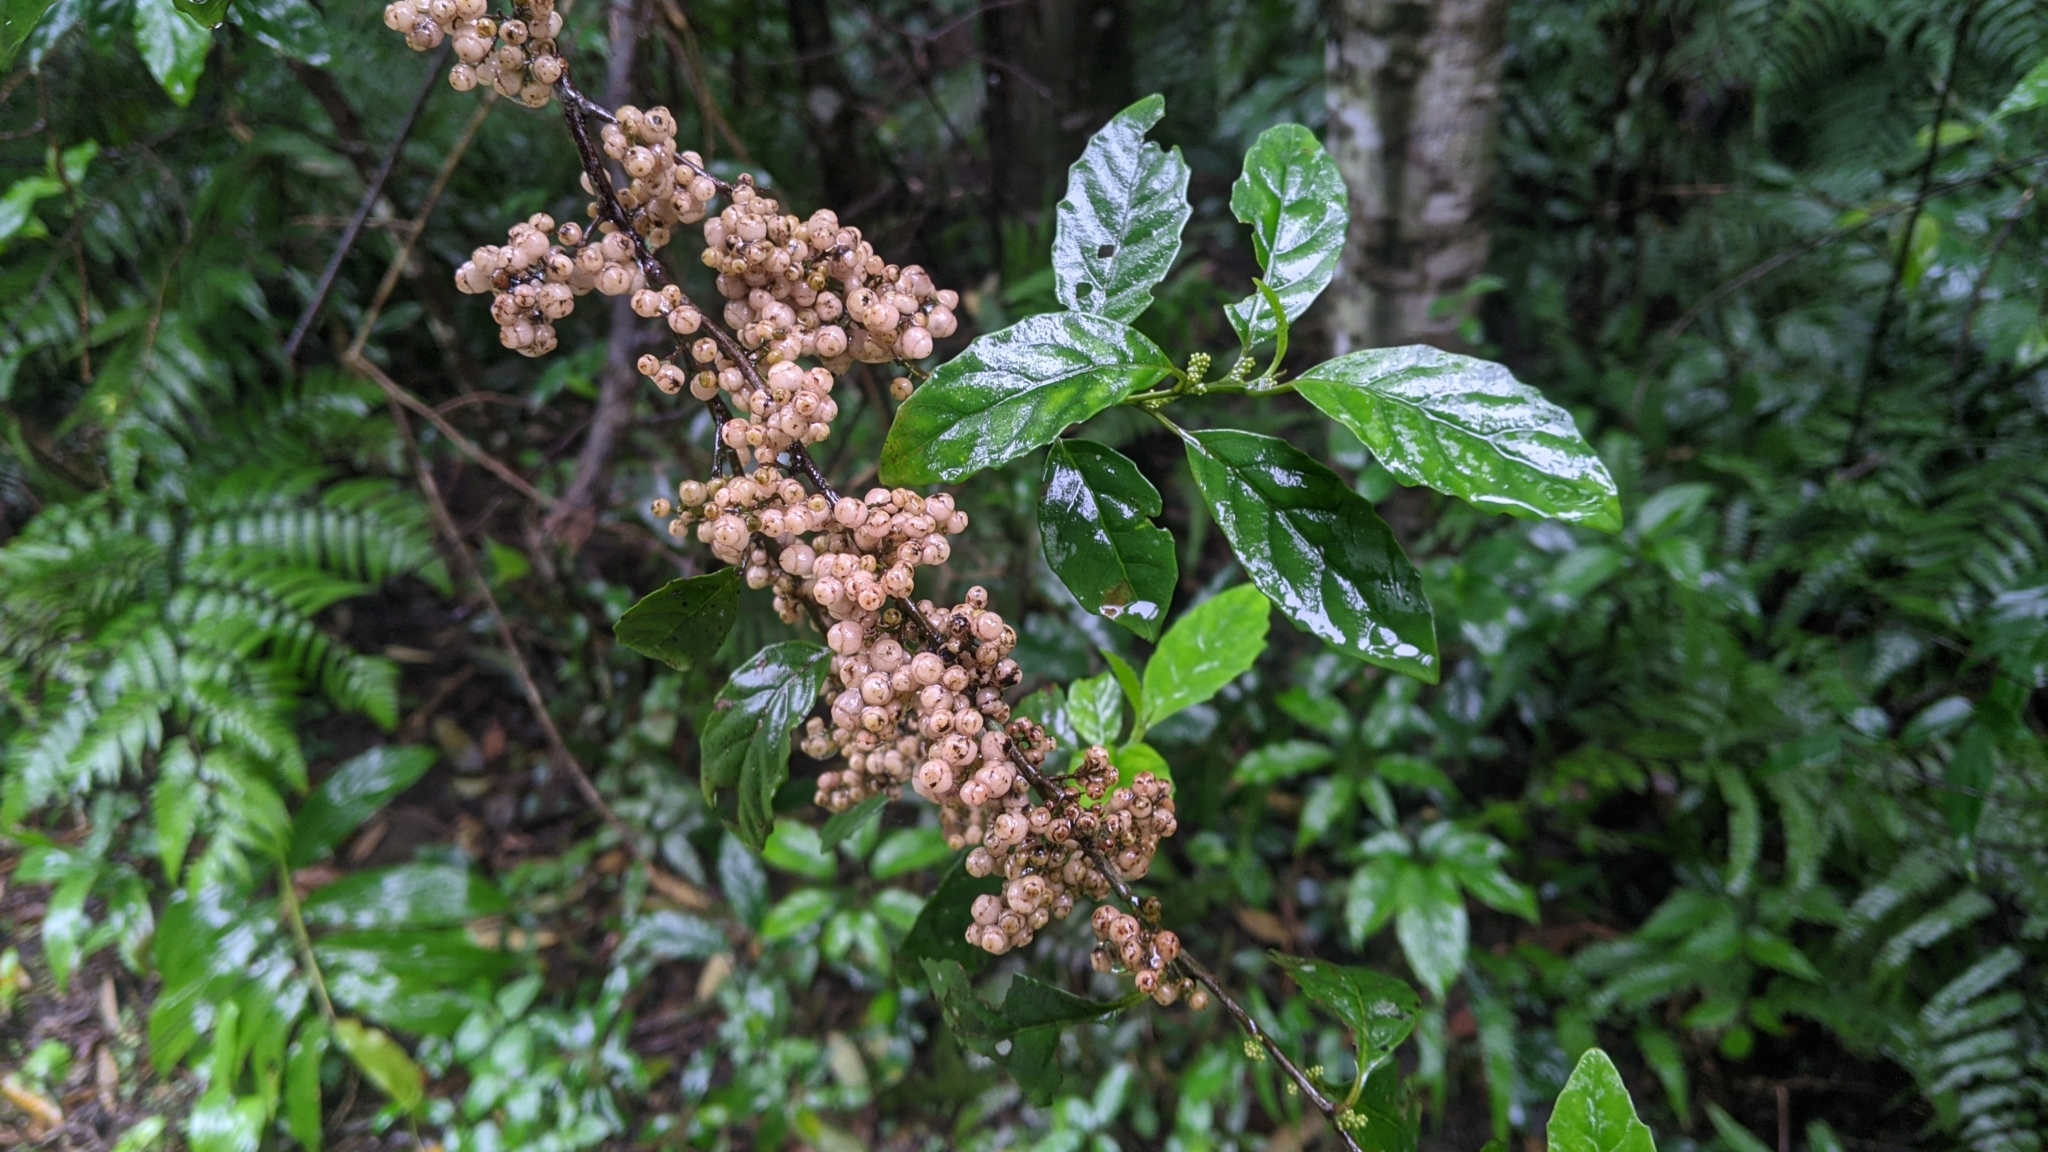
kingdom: Plantae
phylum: Tracheophyta
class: Magnoliopsida
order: Ericales
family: Primulaceae
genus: Maesa
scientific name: Maesa perlaria
